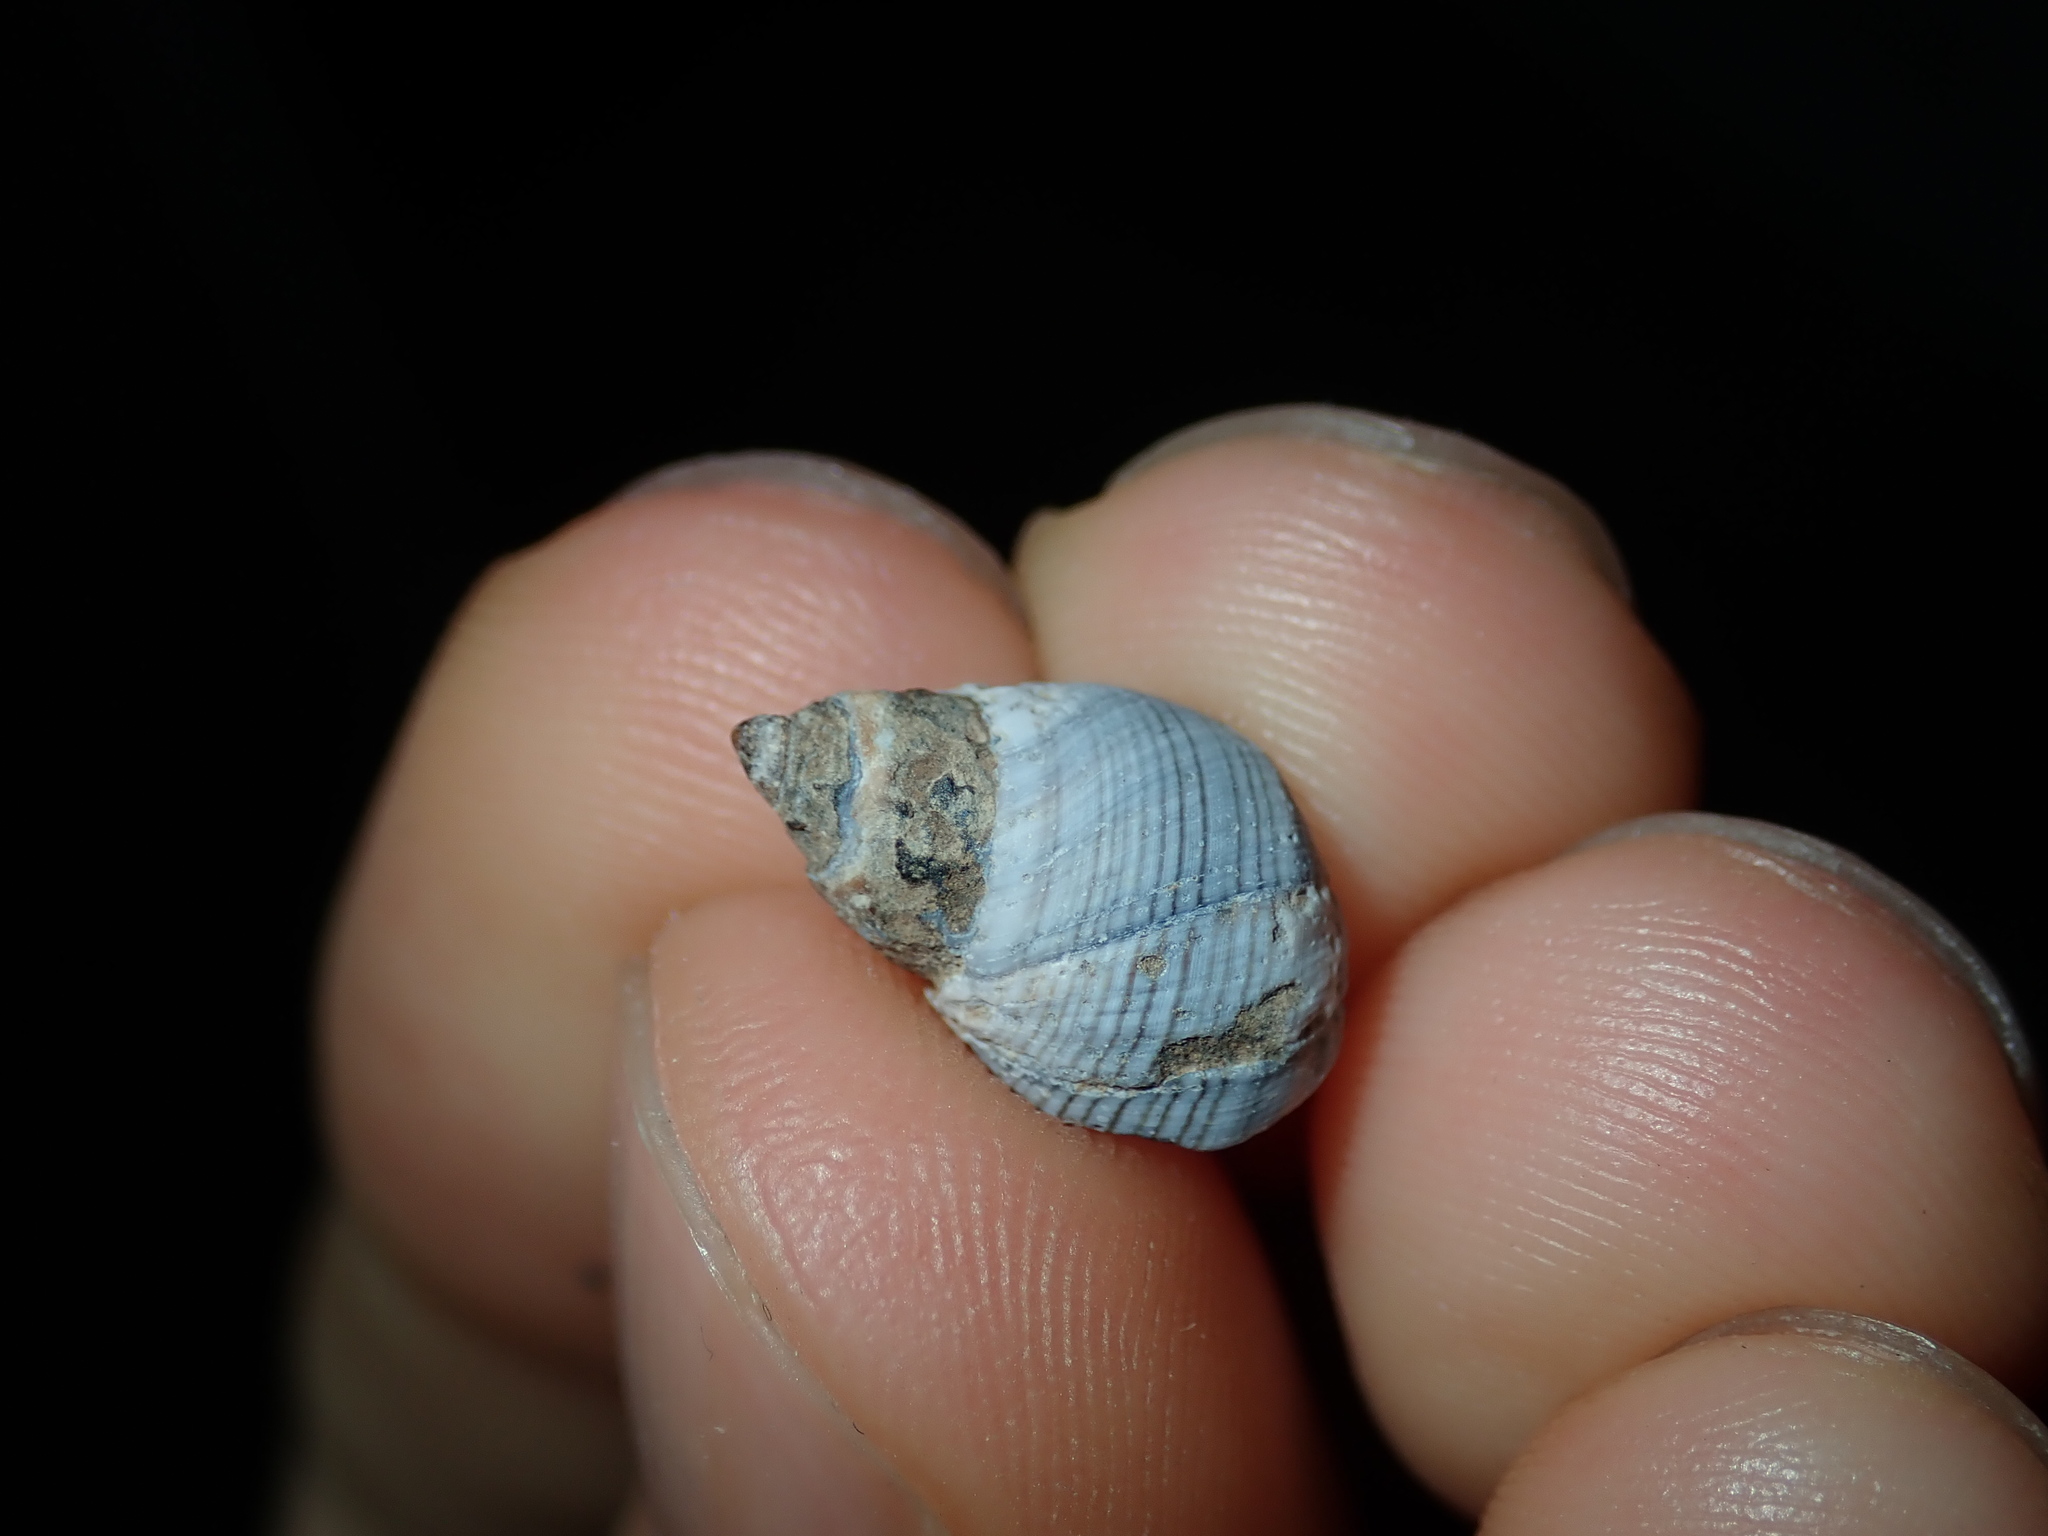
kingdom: Animalia
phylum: Mollusca
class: Gastropoda
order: Littorinimorpha
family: Littorinidae
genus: Austrolittorina
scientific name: Austrolittorina unifasciata
